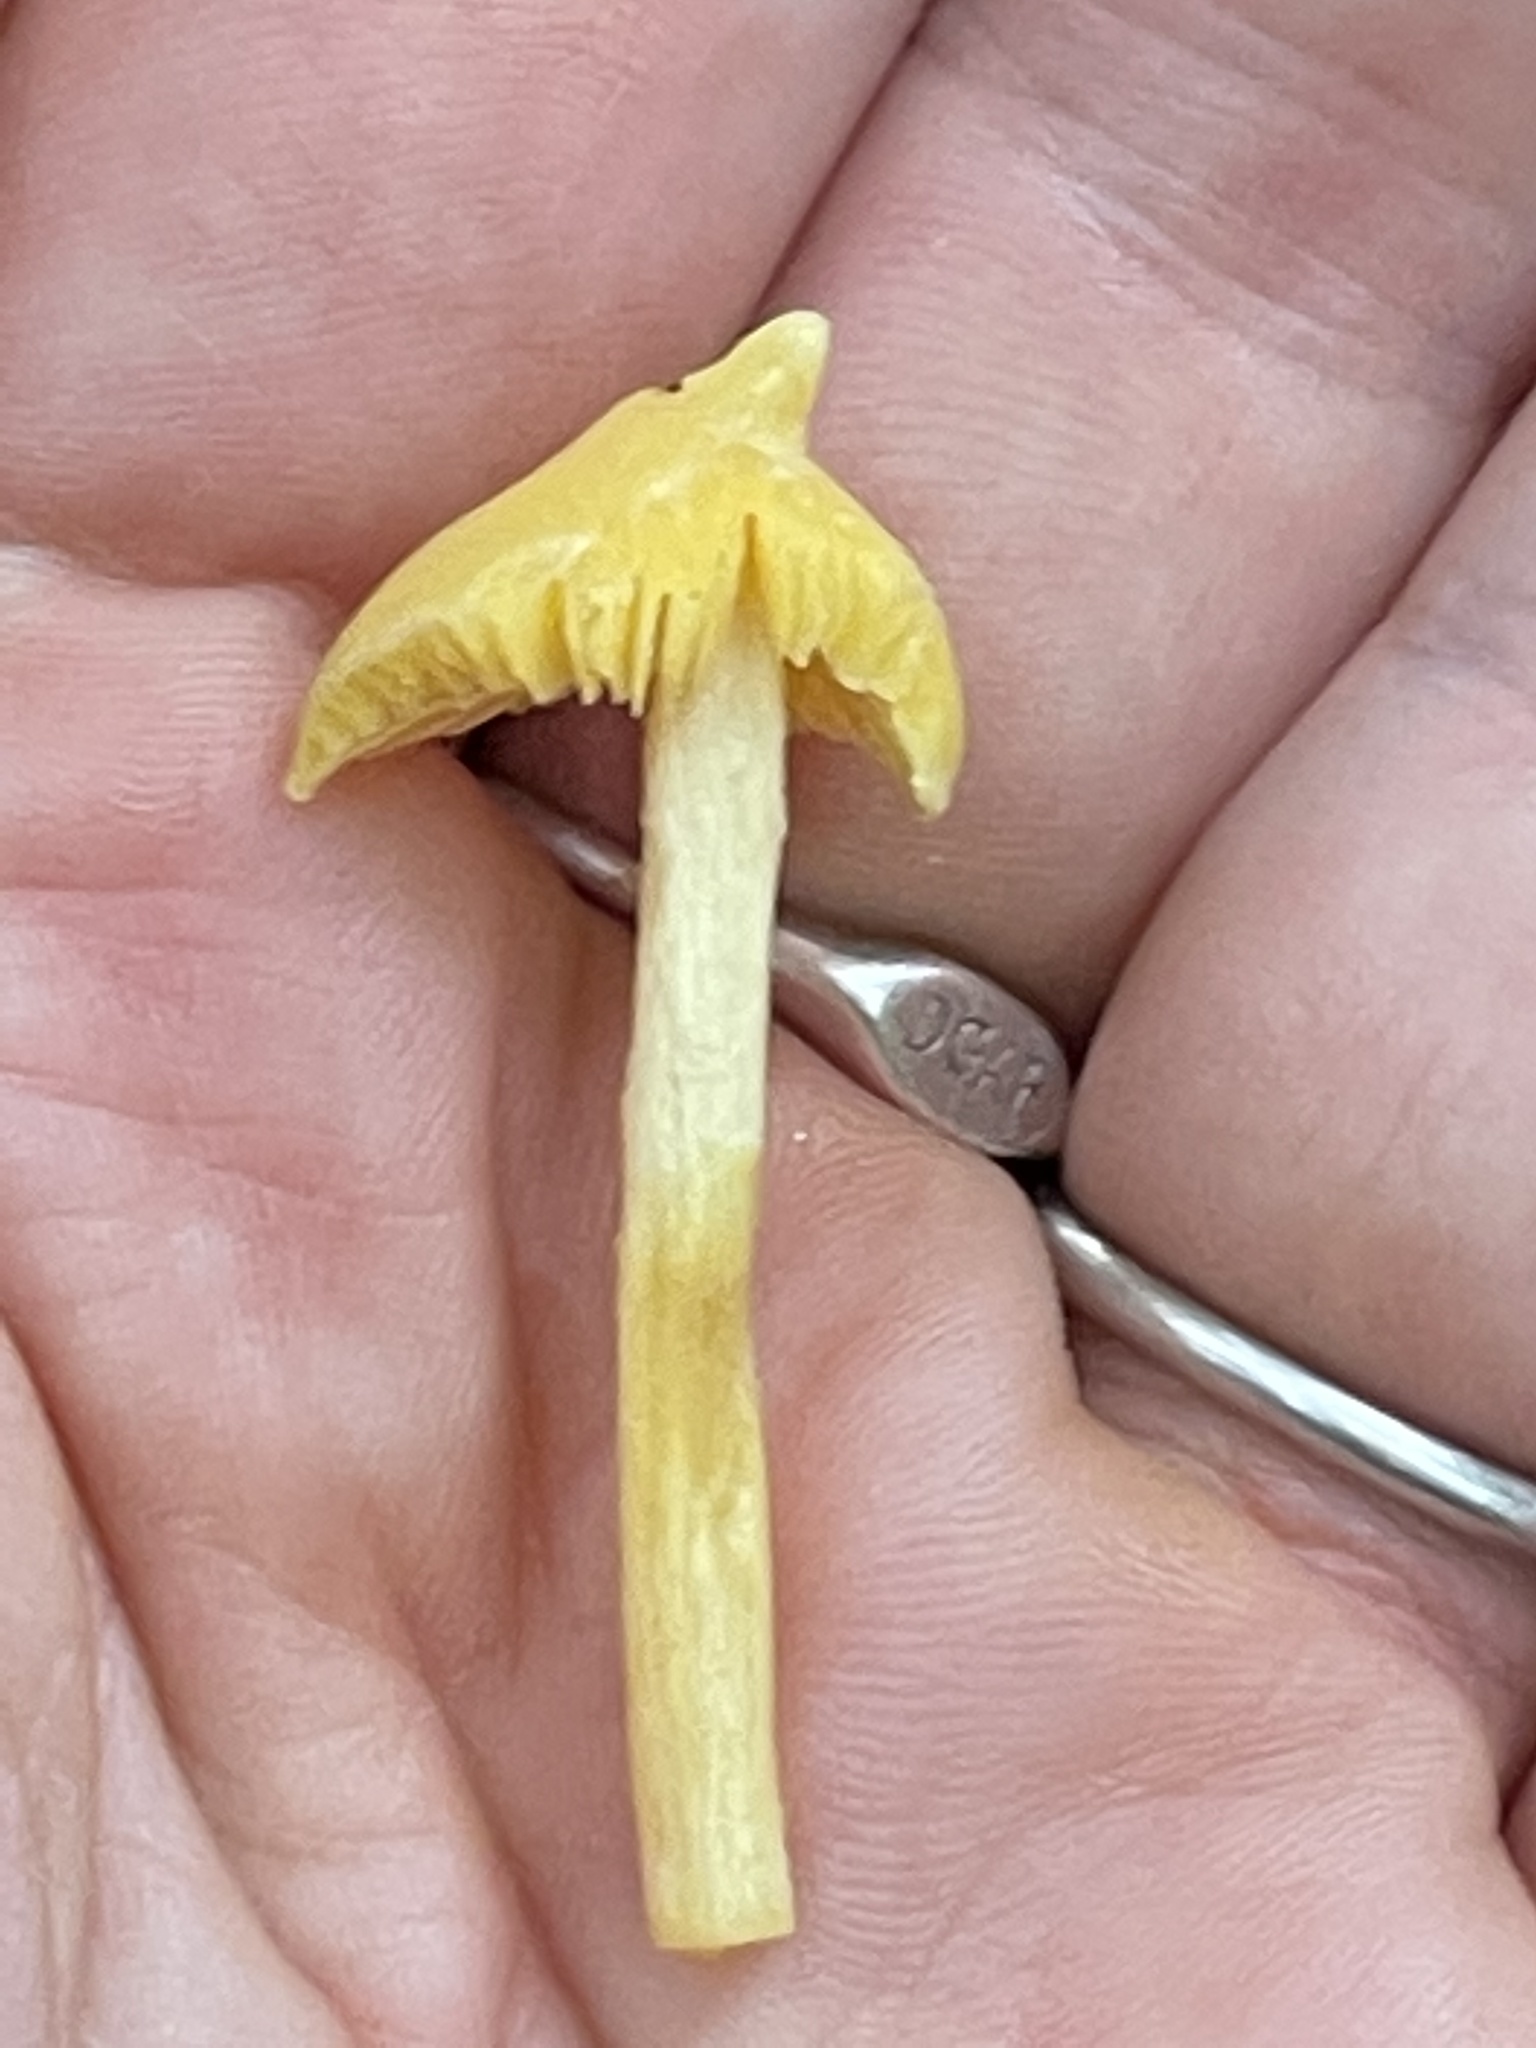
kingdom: Fungi
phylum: Basidiomycota
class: Agaricomycetes
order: Agaricales
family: Entolomataceae
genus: Entoloma
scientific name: Entoloma murrayi
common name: Yellow unicorn entoloma
